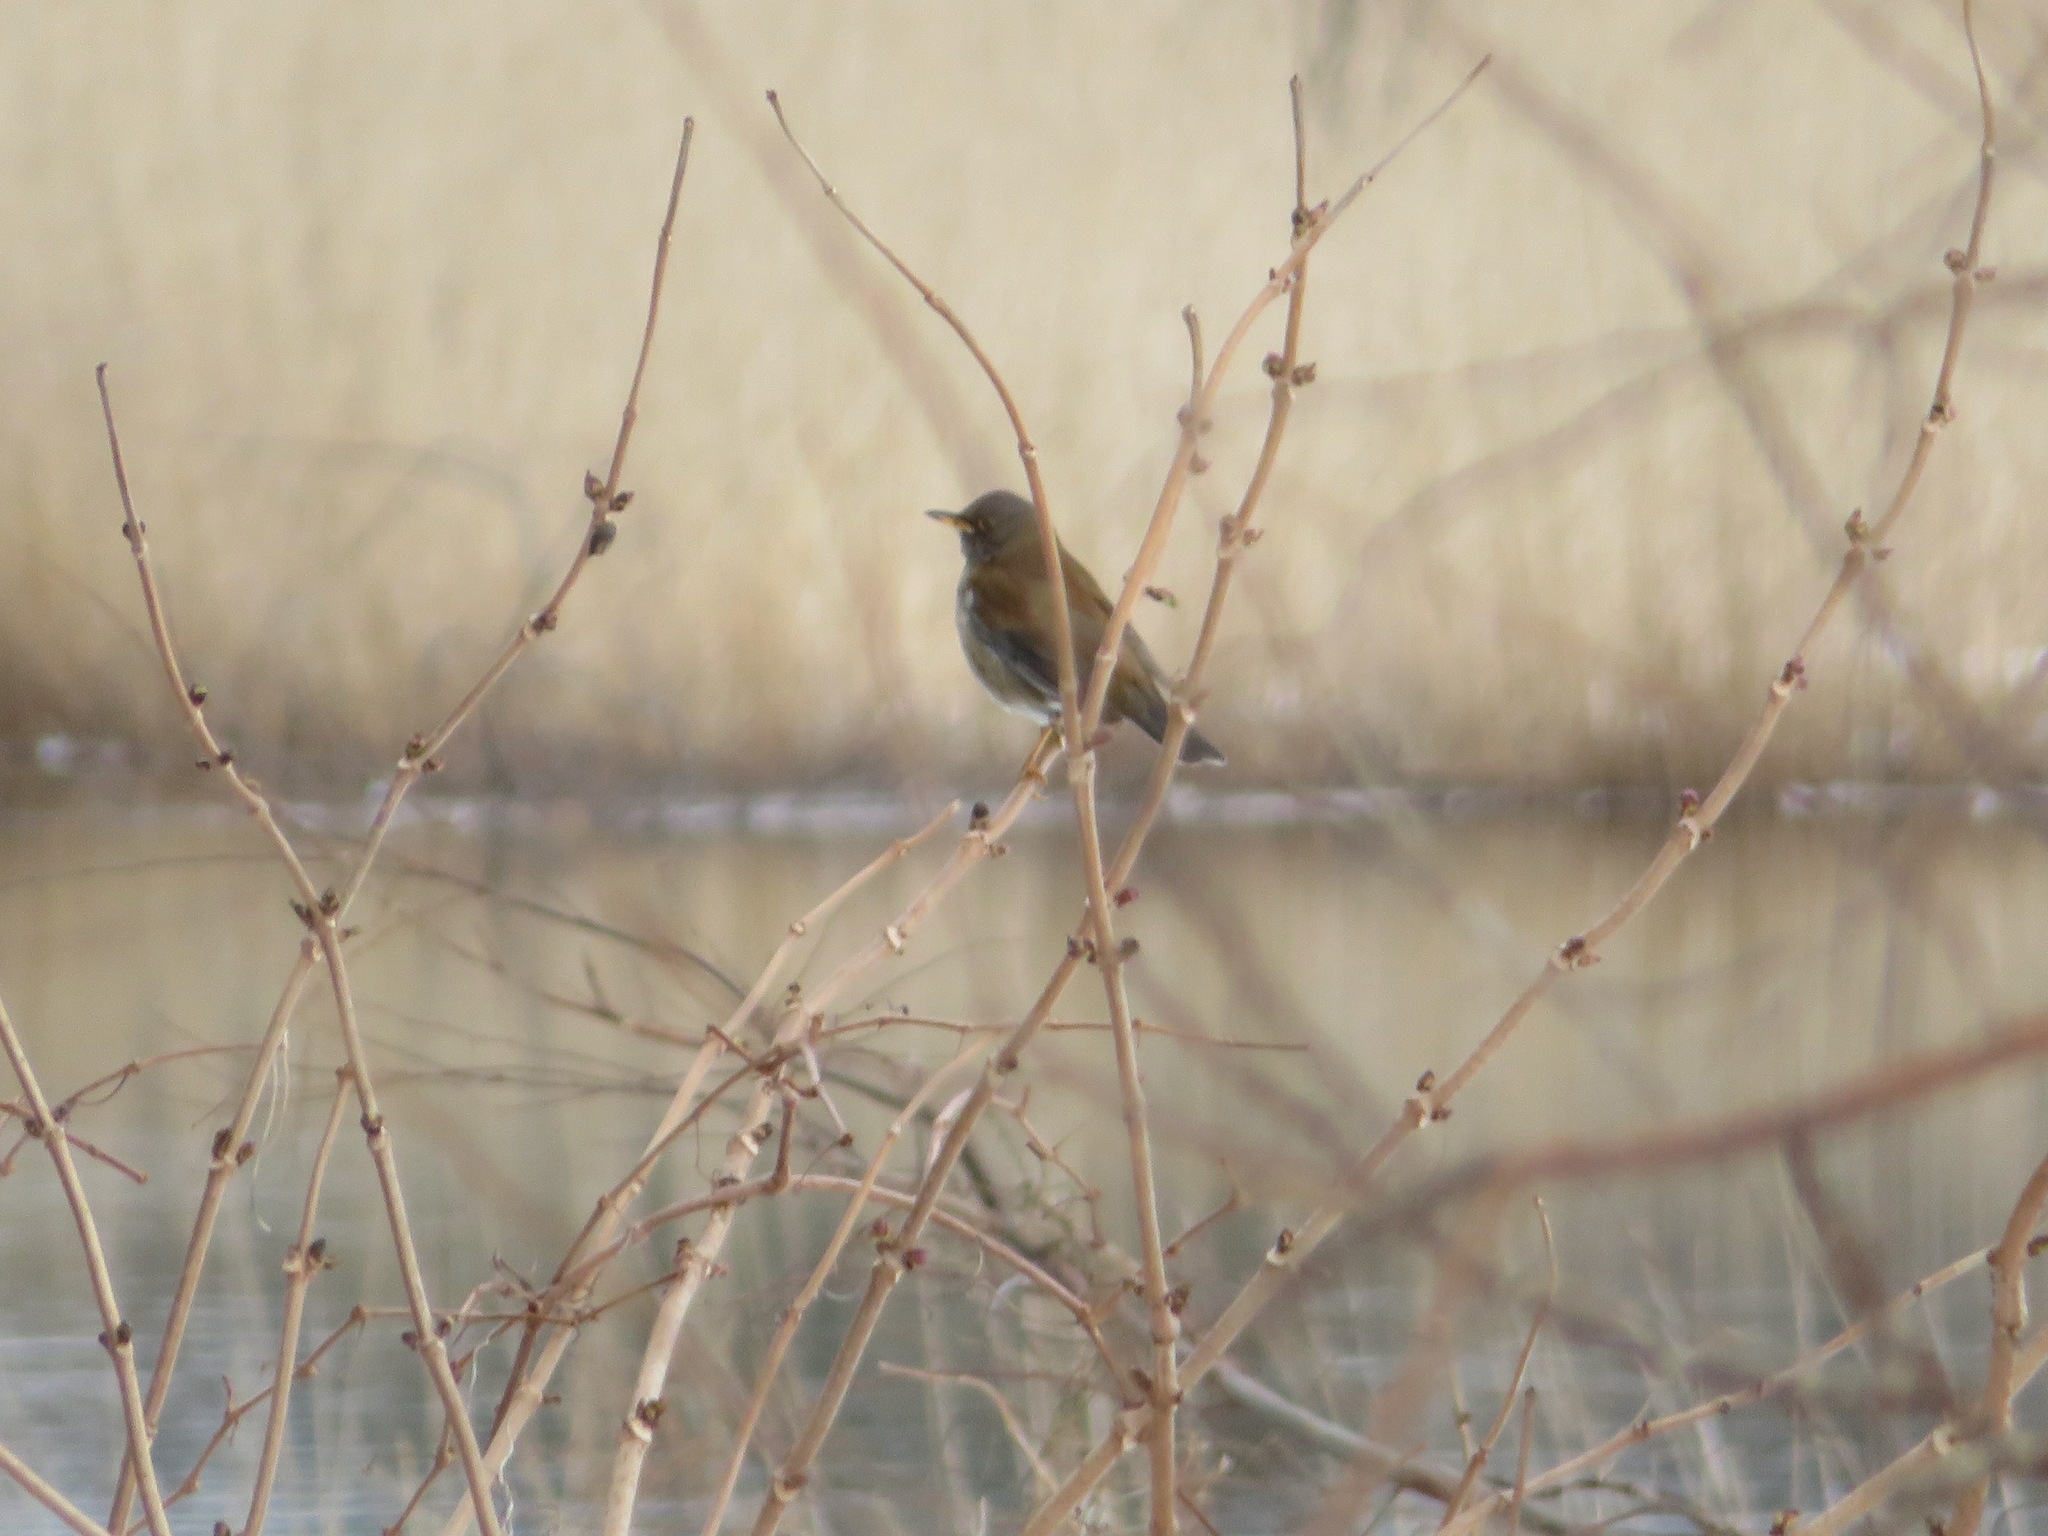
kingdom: Animalia
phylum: Chordata
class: Aves
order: Passeriformes
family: Turdidae
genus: Turdus
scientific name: Turdus pallidus
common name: Pale thrush
